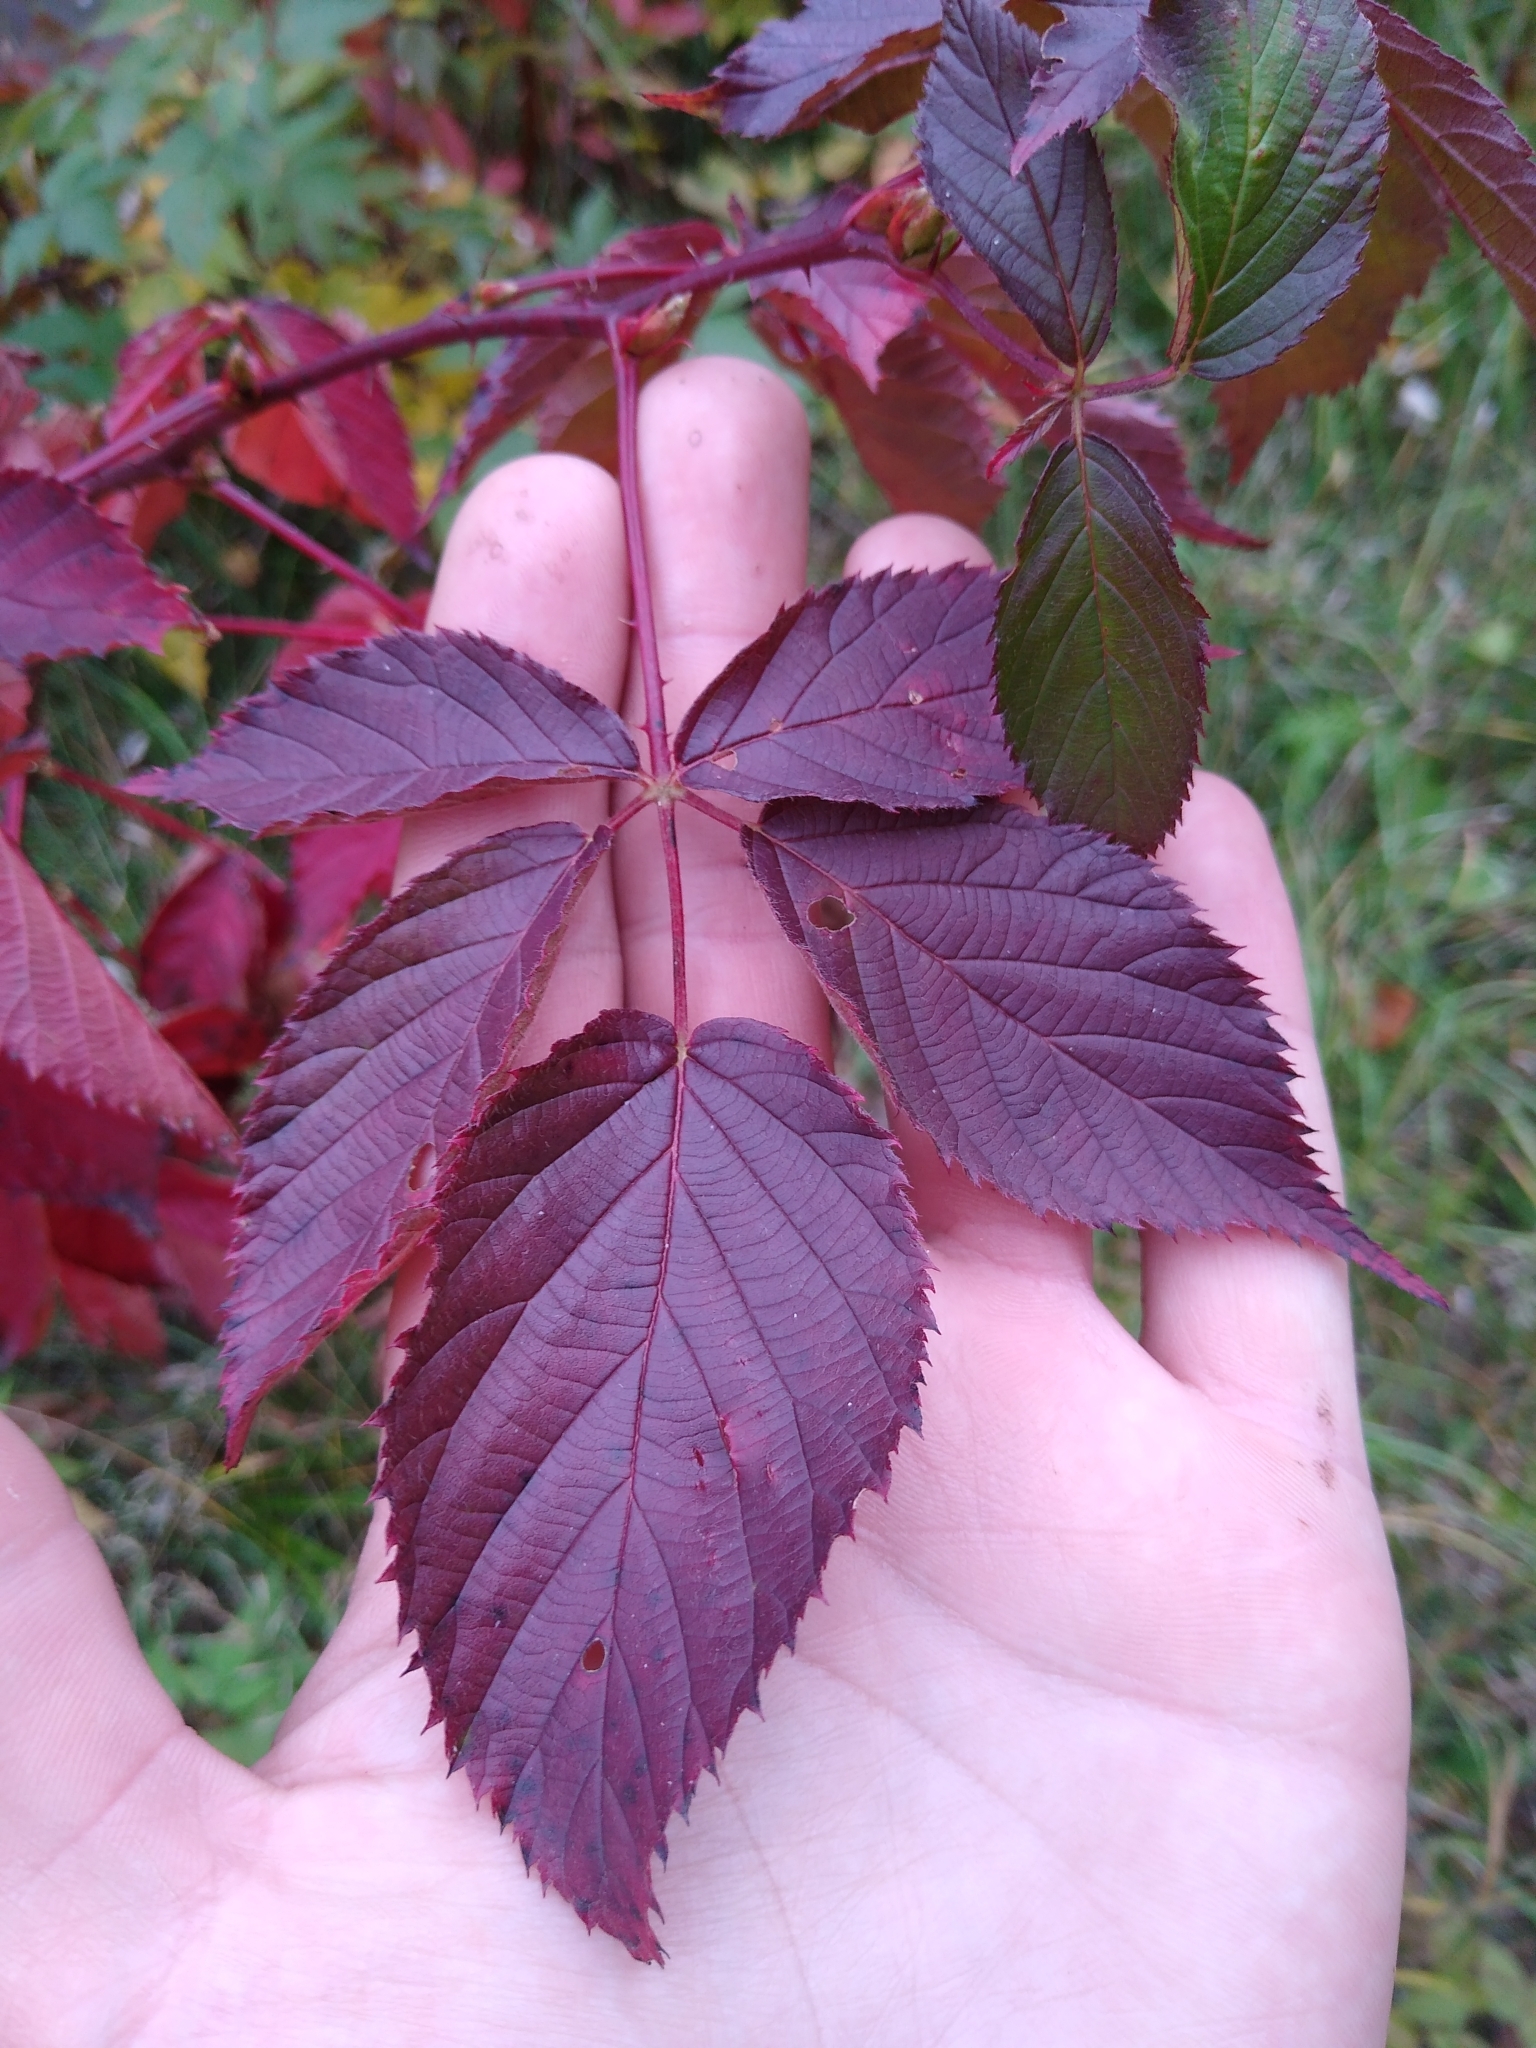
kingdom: Plantae
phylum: Tracheophyta
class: Magnoliopsida
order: Rosales
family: Rosaceae
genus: Rubus
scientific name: Rubus allegheniensis
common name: Allegheny blackberry
